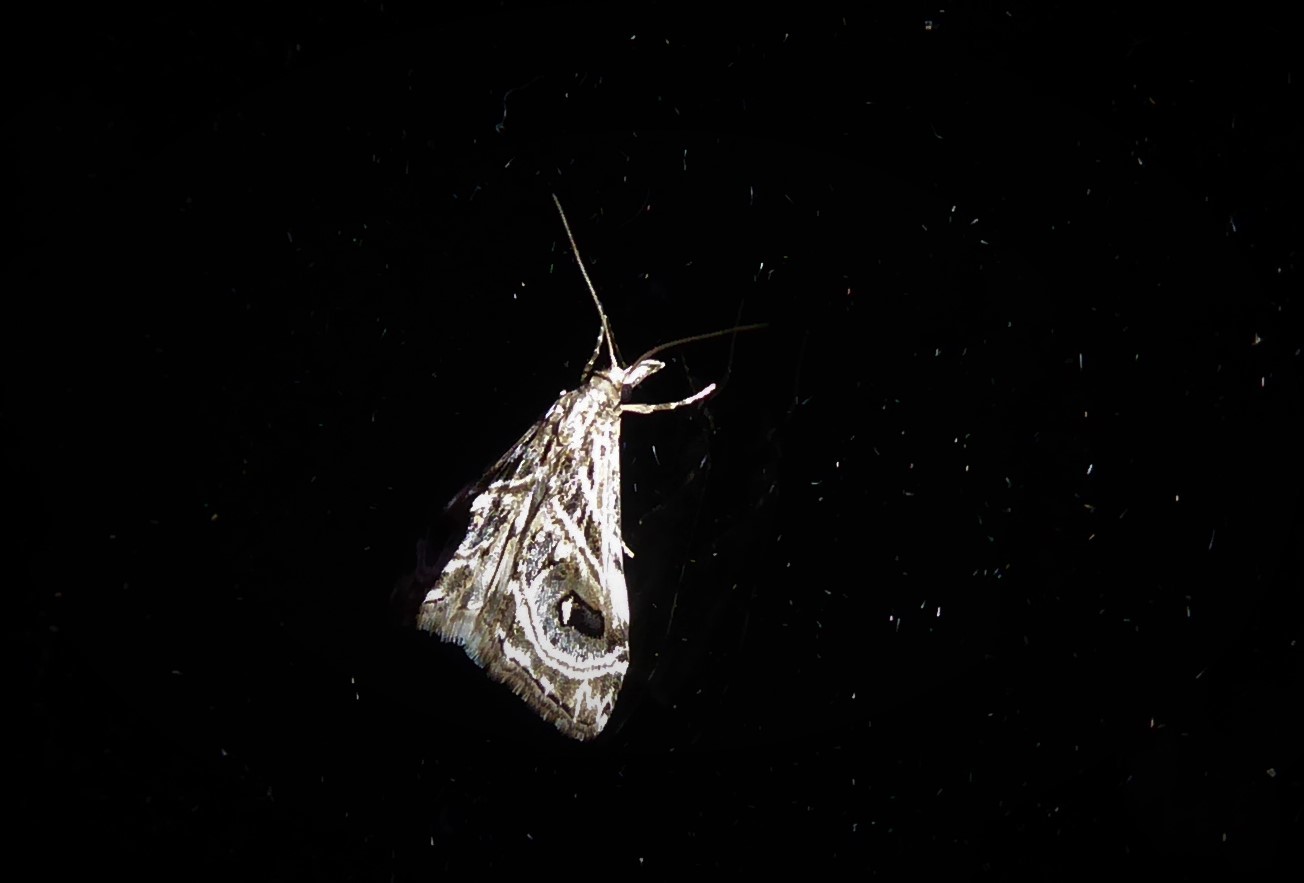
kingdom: Animalia
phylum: Arthropoda
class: Insecta
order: Lepidoptera
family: Crambidae
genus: Gadira
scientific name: Gadira acerella
